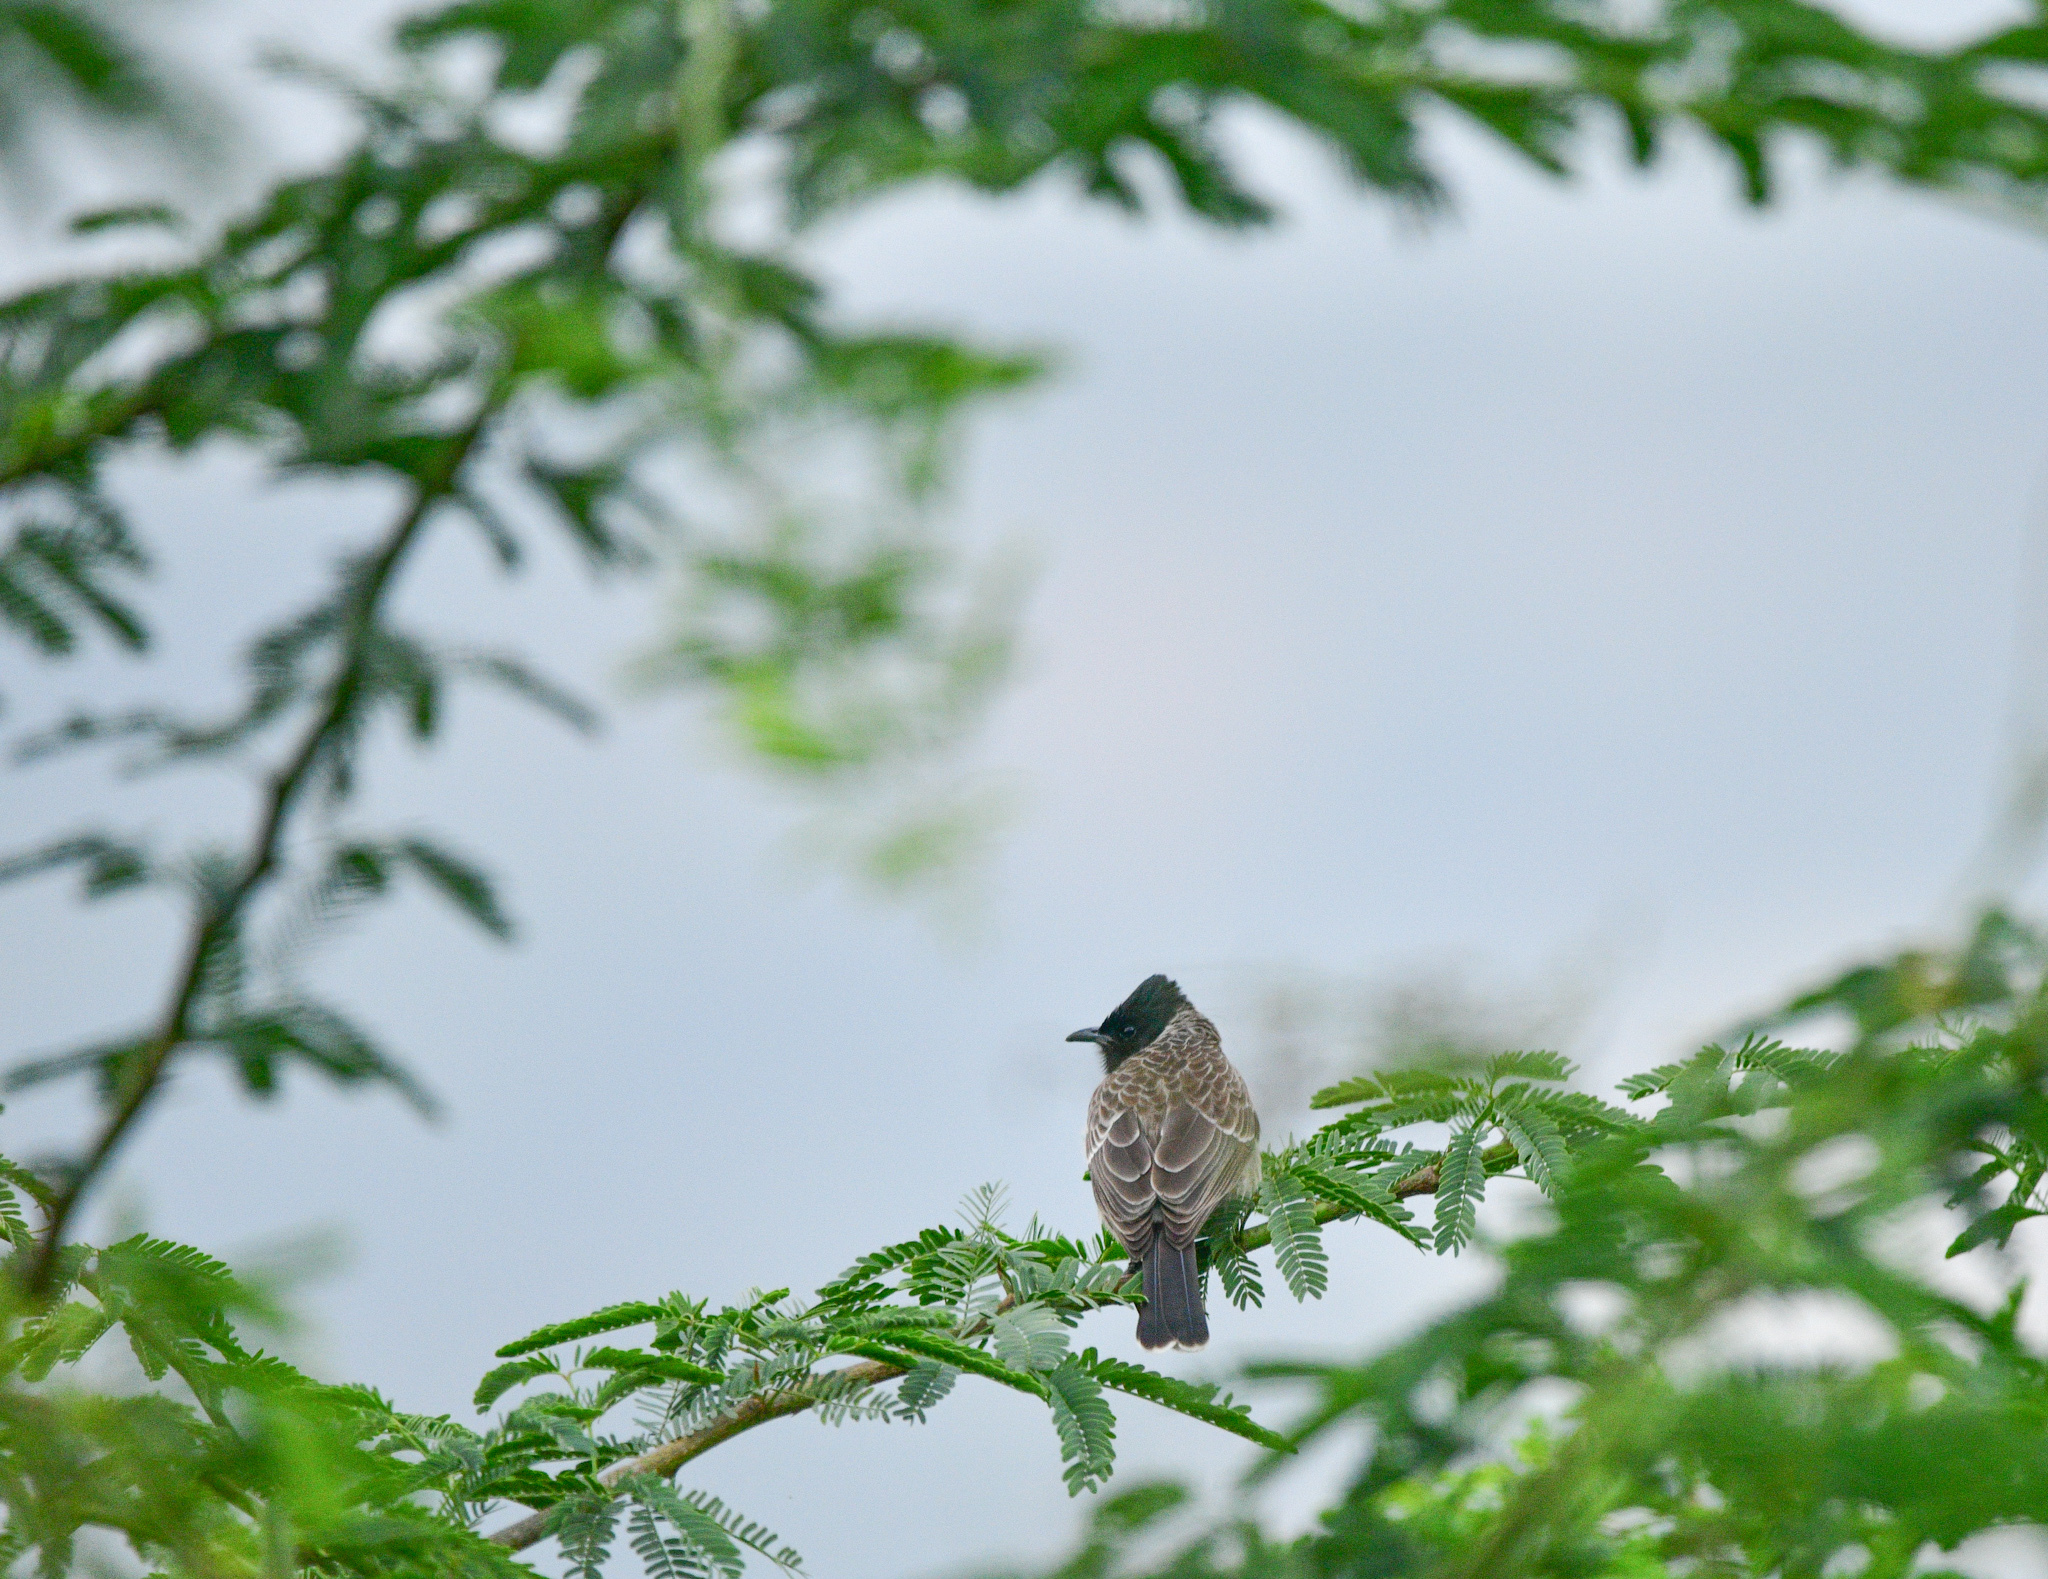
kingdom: Animalia
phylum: Chordata
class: Aves
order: Passeriformes
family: Pycnonotidae
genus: Pycnonotus
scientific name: Pycnonotus cafer
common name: Red-vented bulbul
